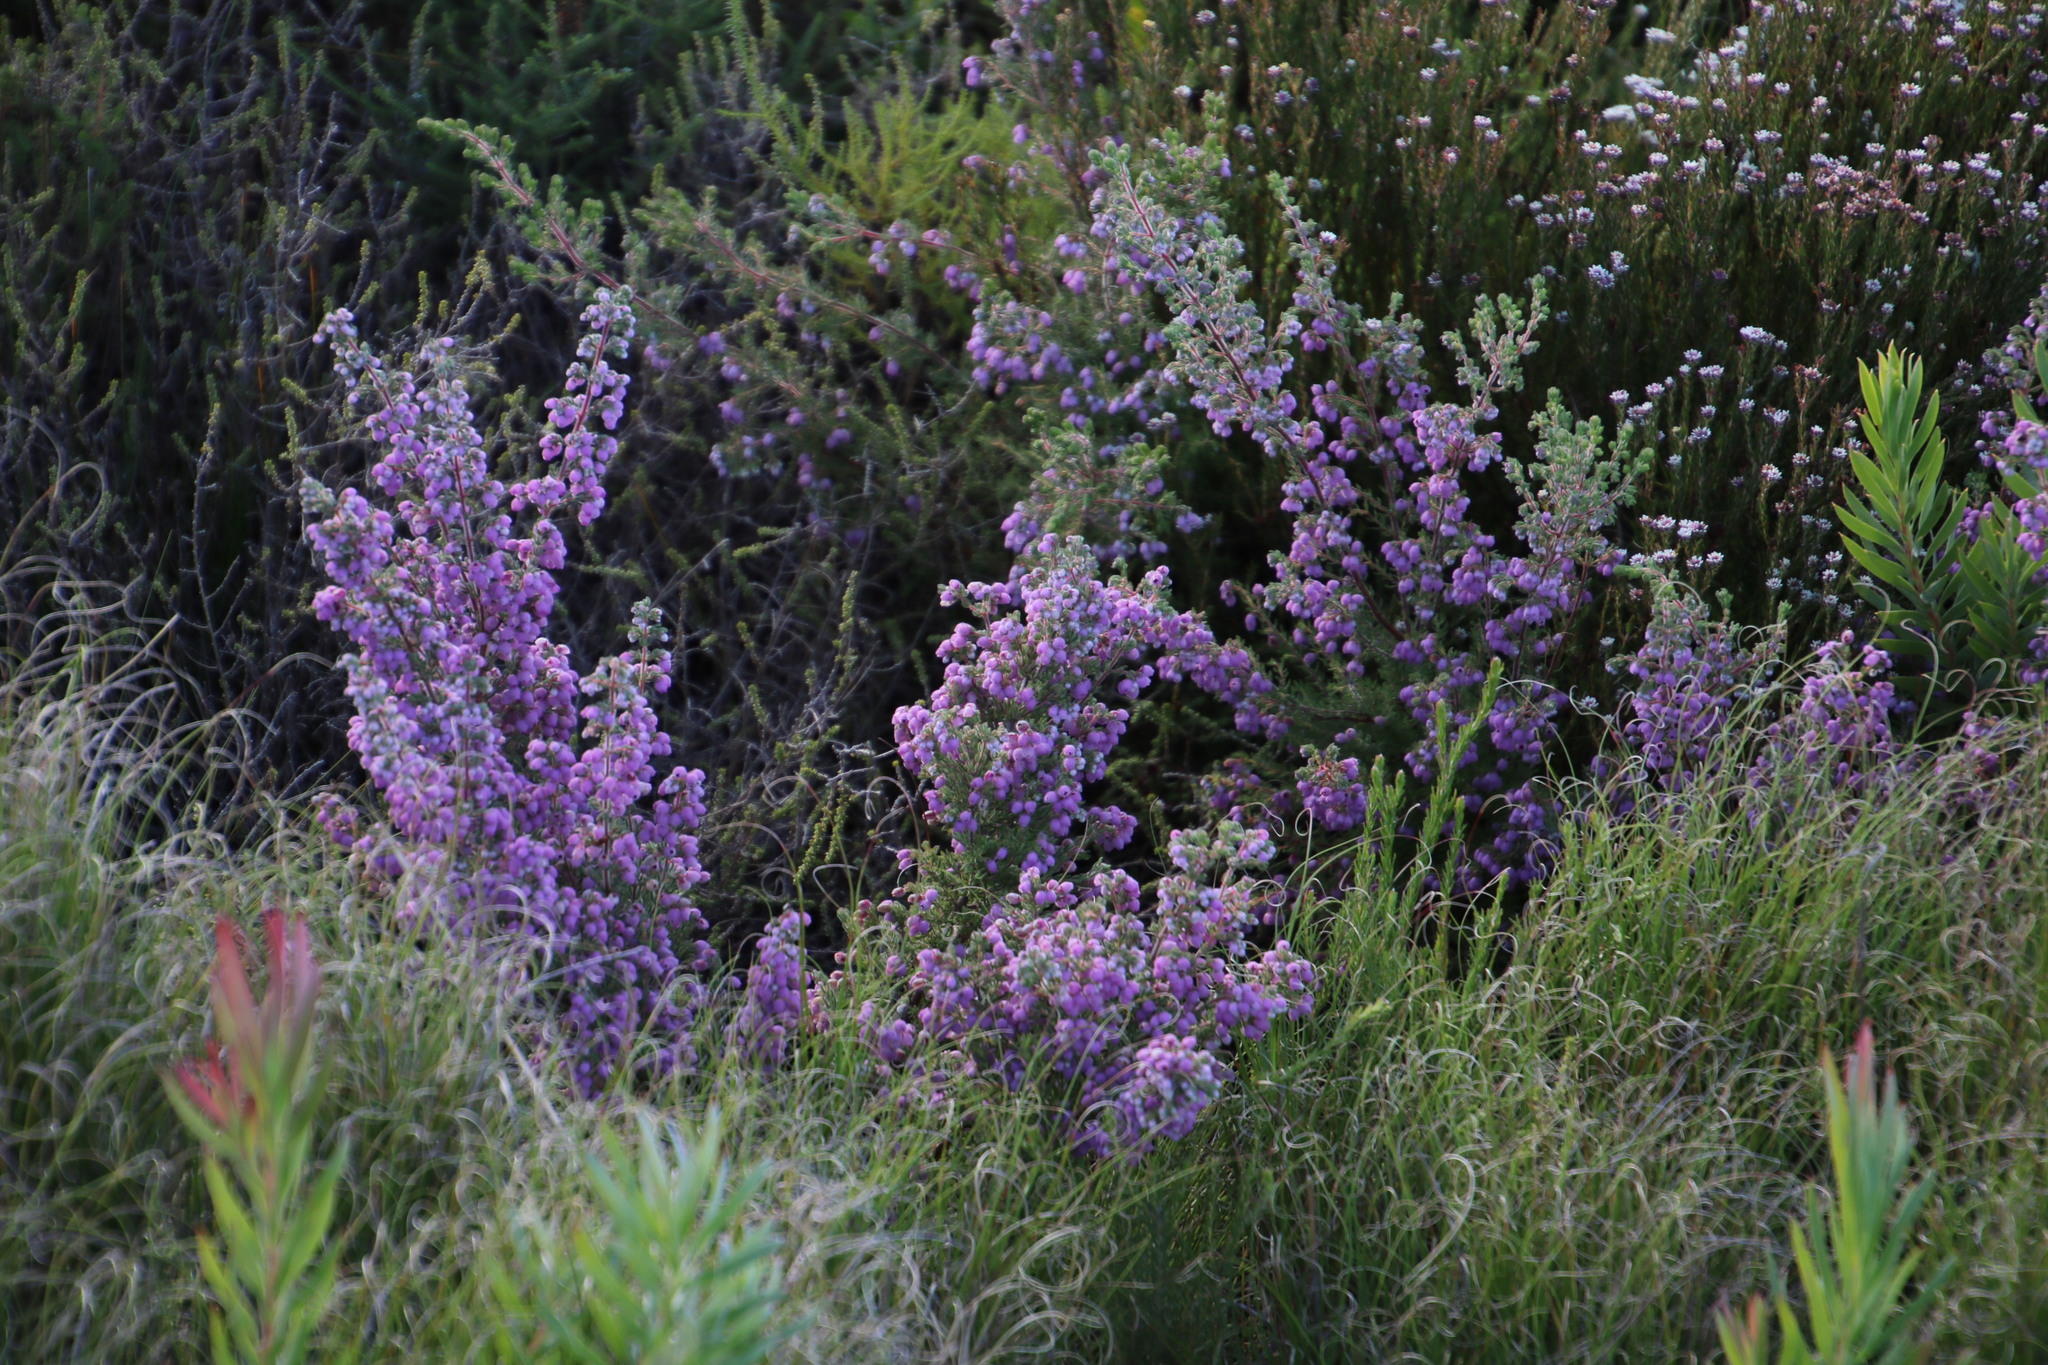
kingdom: Plantae
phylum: Tracheophyta
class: Magnoliopsida
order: Ericales
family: Ericaceae
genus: Erica
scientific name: Erica hirtiflora
